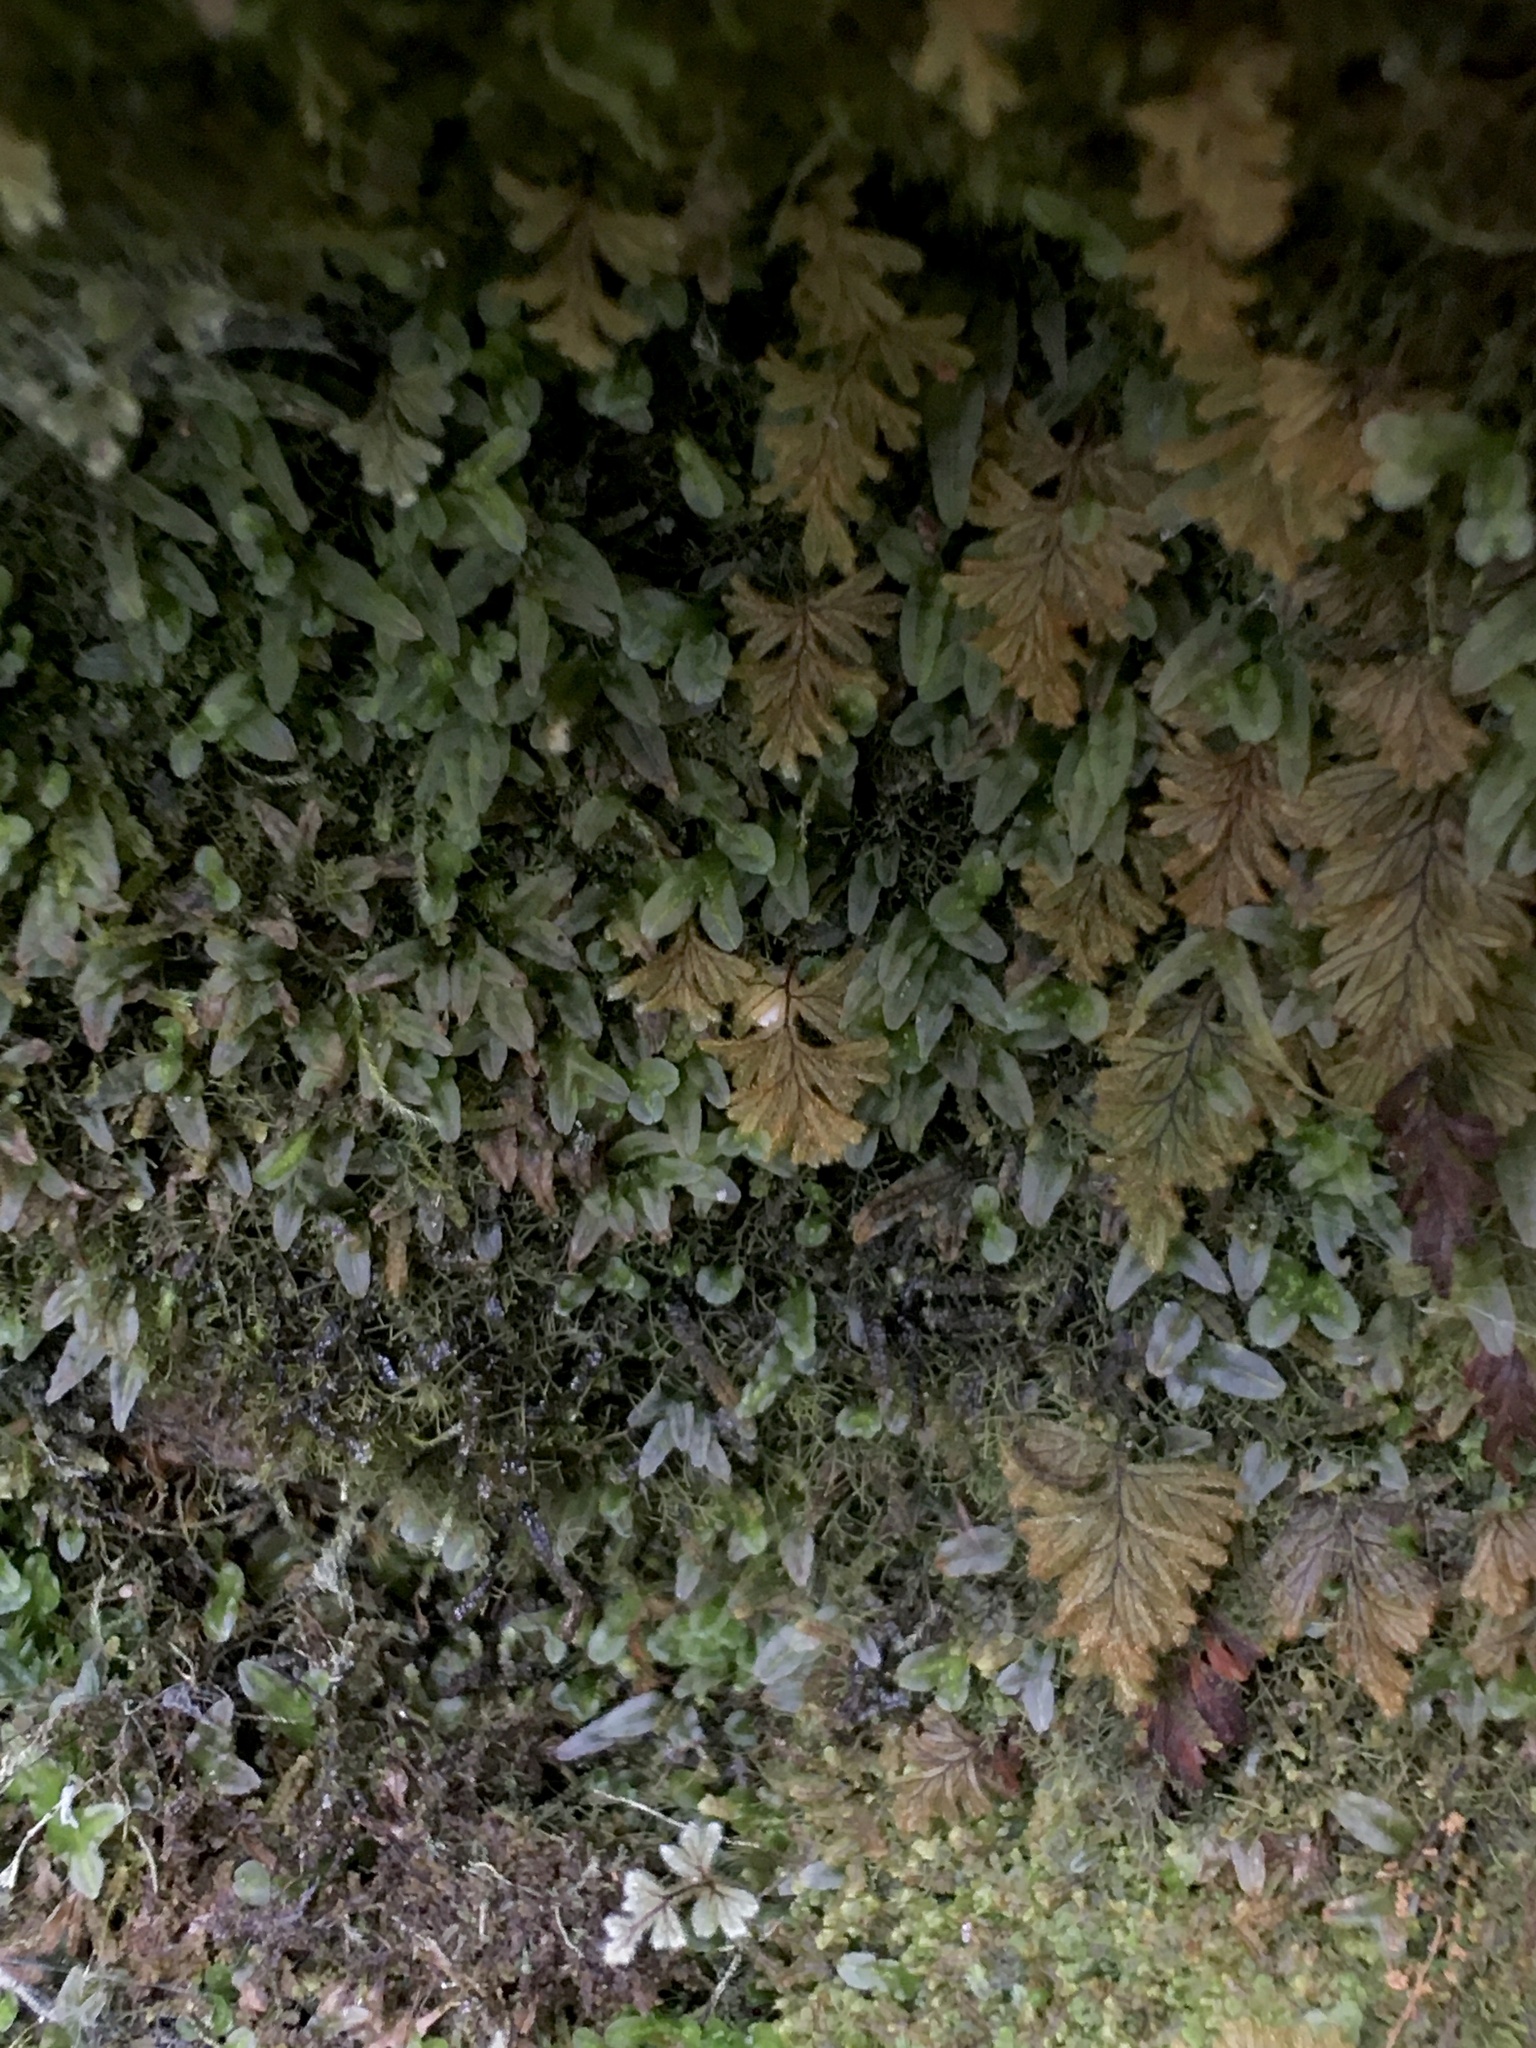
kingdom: Plantae
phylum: Tracheophyta
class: Polypodiopsida
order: Hymenophyllales
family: Hymenophyllaceae
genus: Hymenophyllum
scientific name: Hymenophyllum aeruginosum
